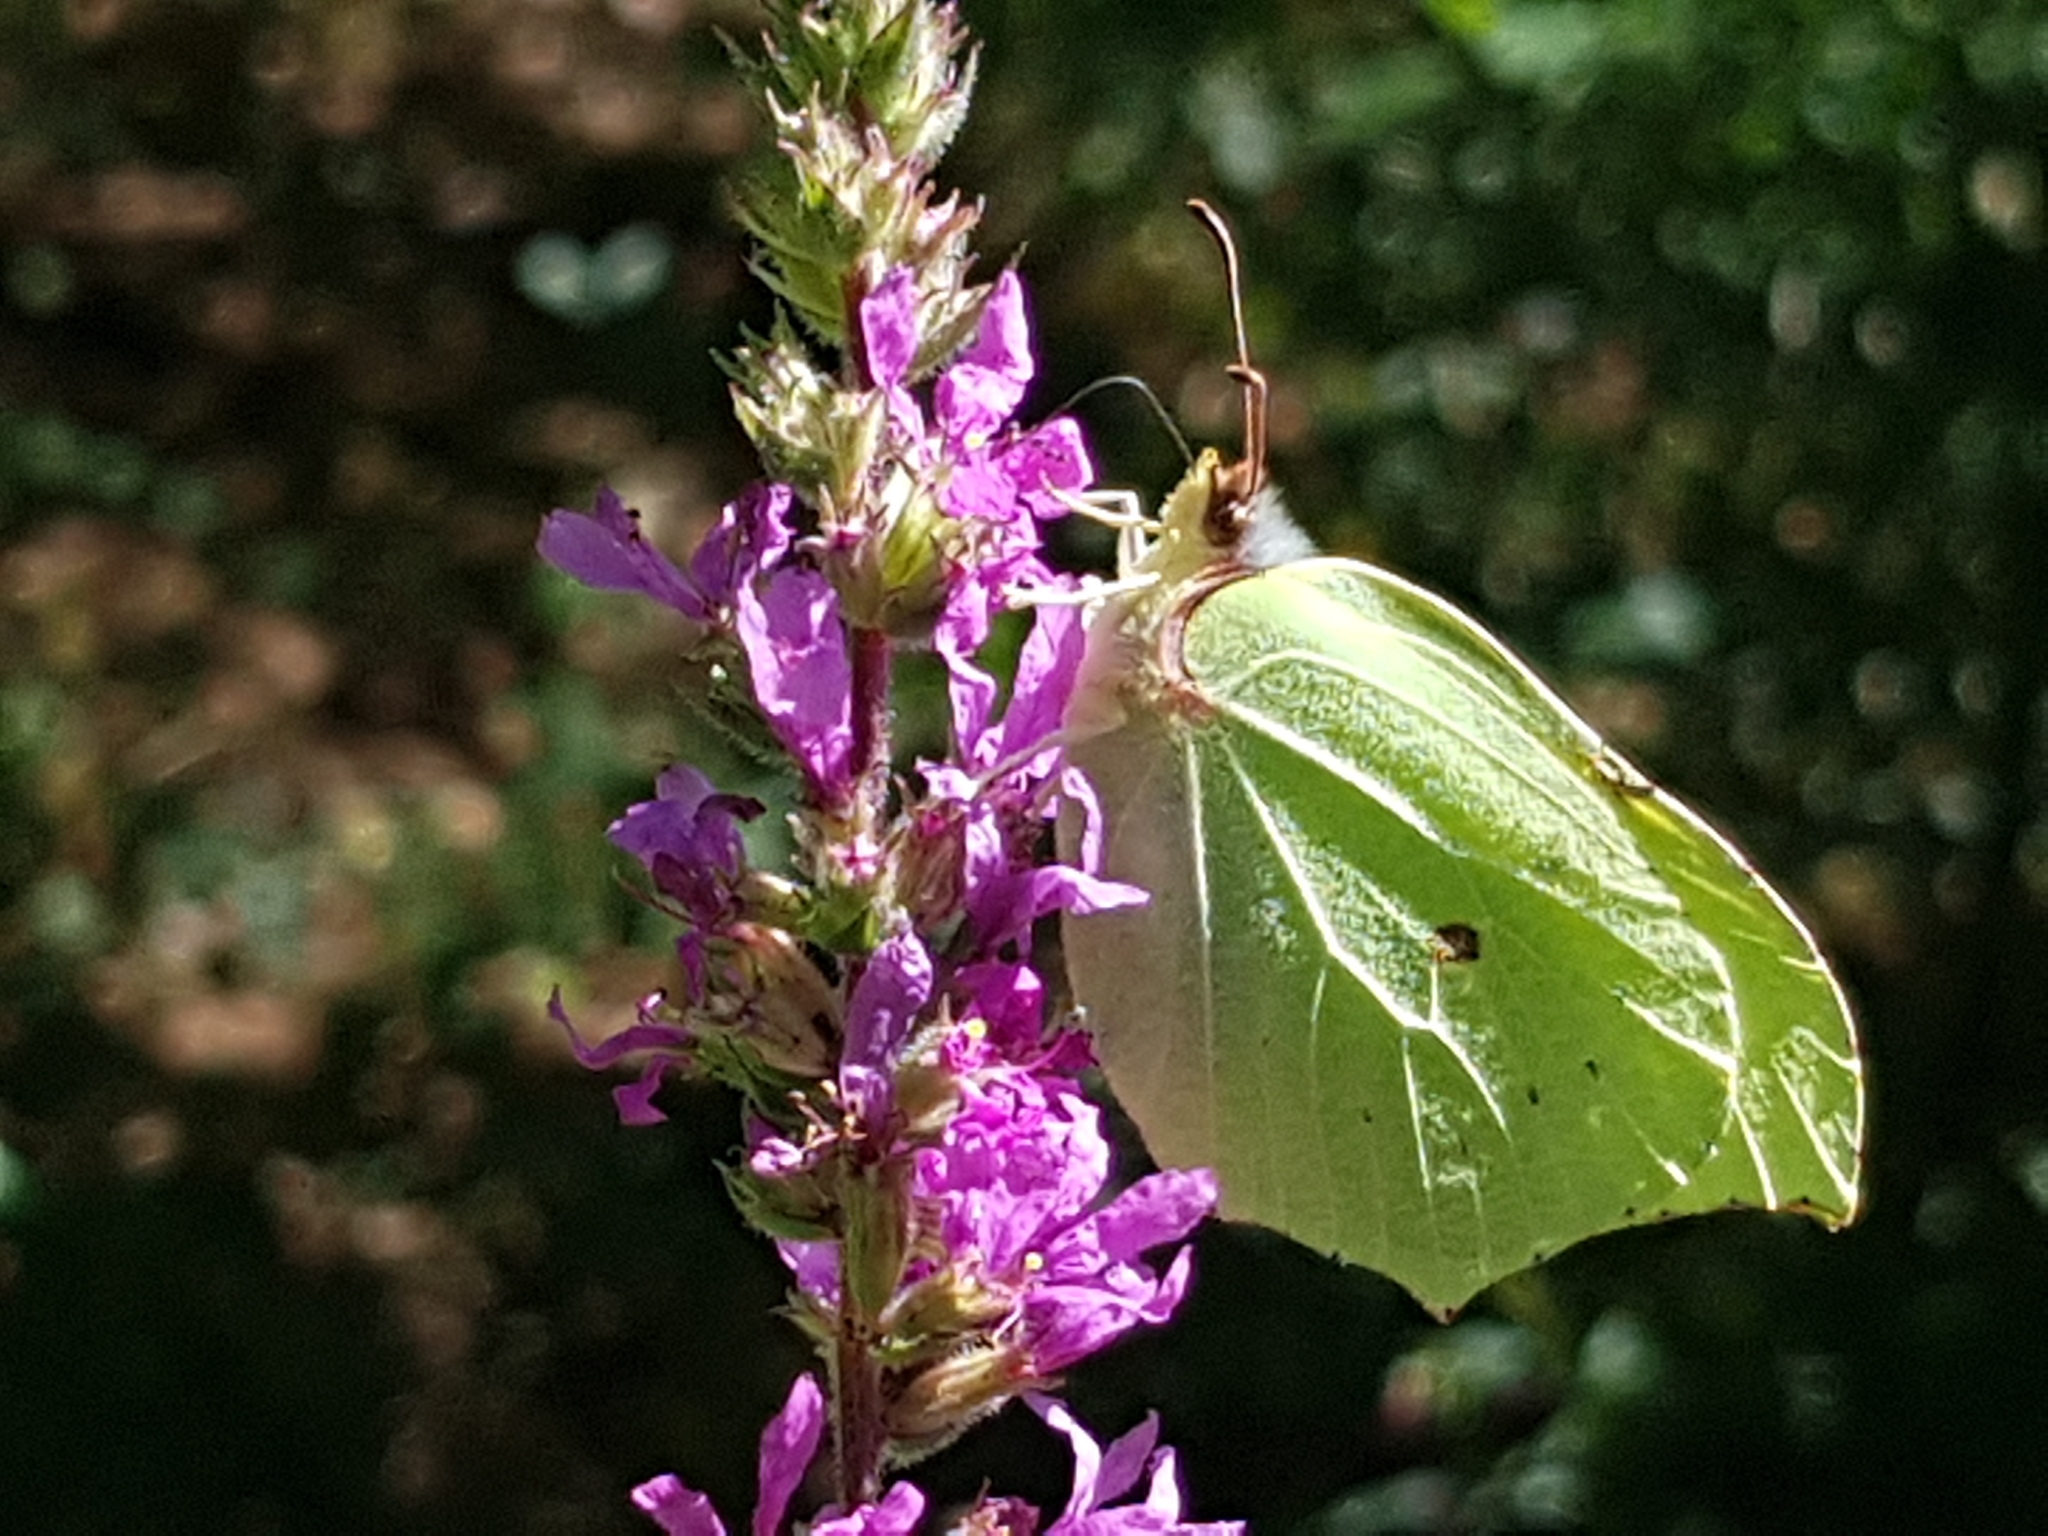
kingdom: Animalia
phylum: Arthropoda
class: Insecta
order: Lepidoptera
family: Pieridae
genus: Gonepteryx
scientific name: Gonepteryx rhamni
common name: Brimstone
